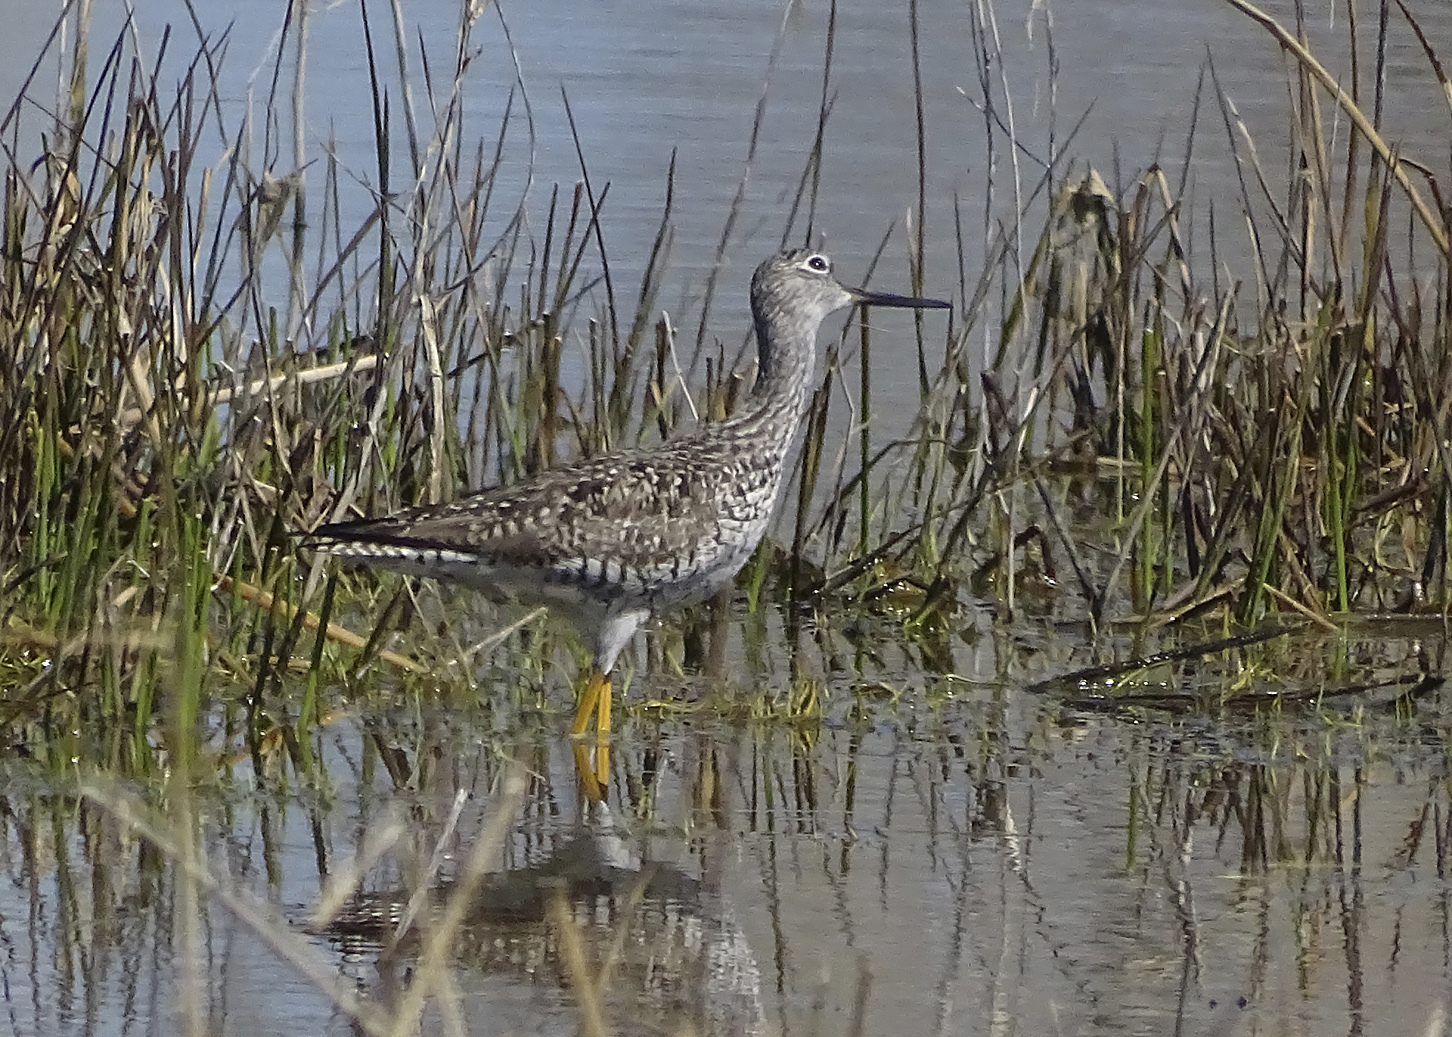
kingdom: Animalia
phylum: Chordata
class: Aves
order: Charadriiformes
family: Scolopacidae
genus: Tringa
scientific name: Tringa melanoleuca
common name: Greater yellowlegs
